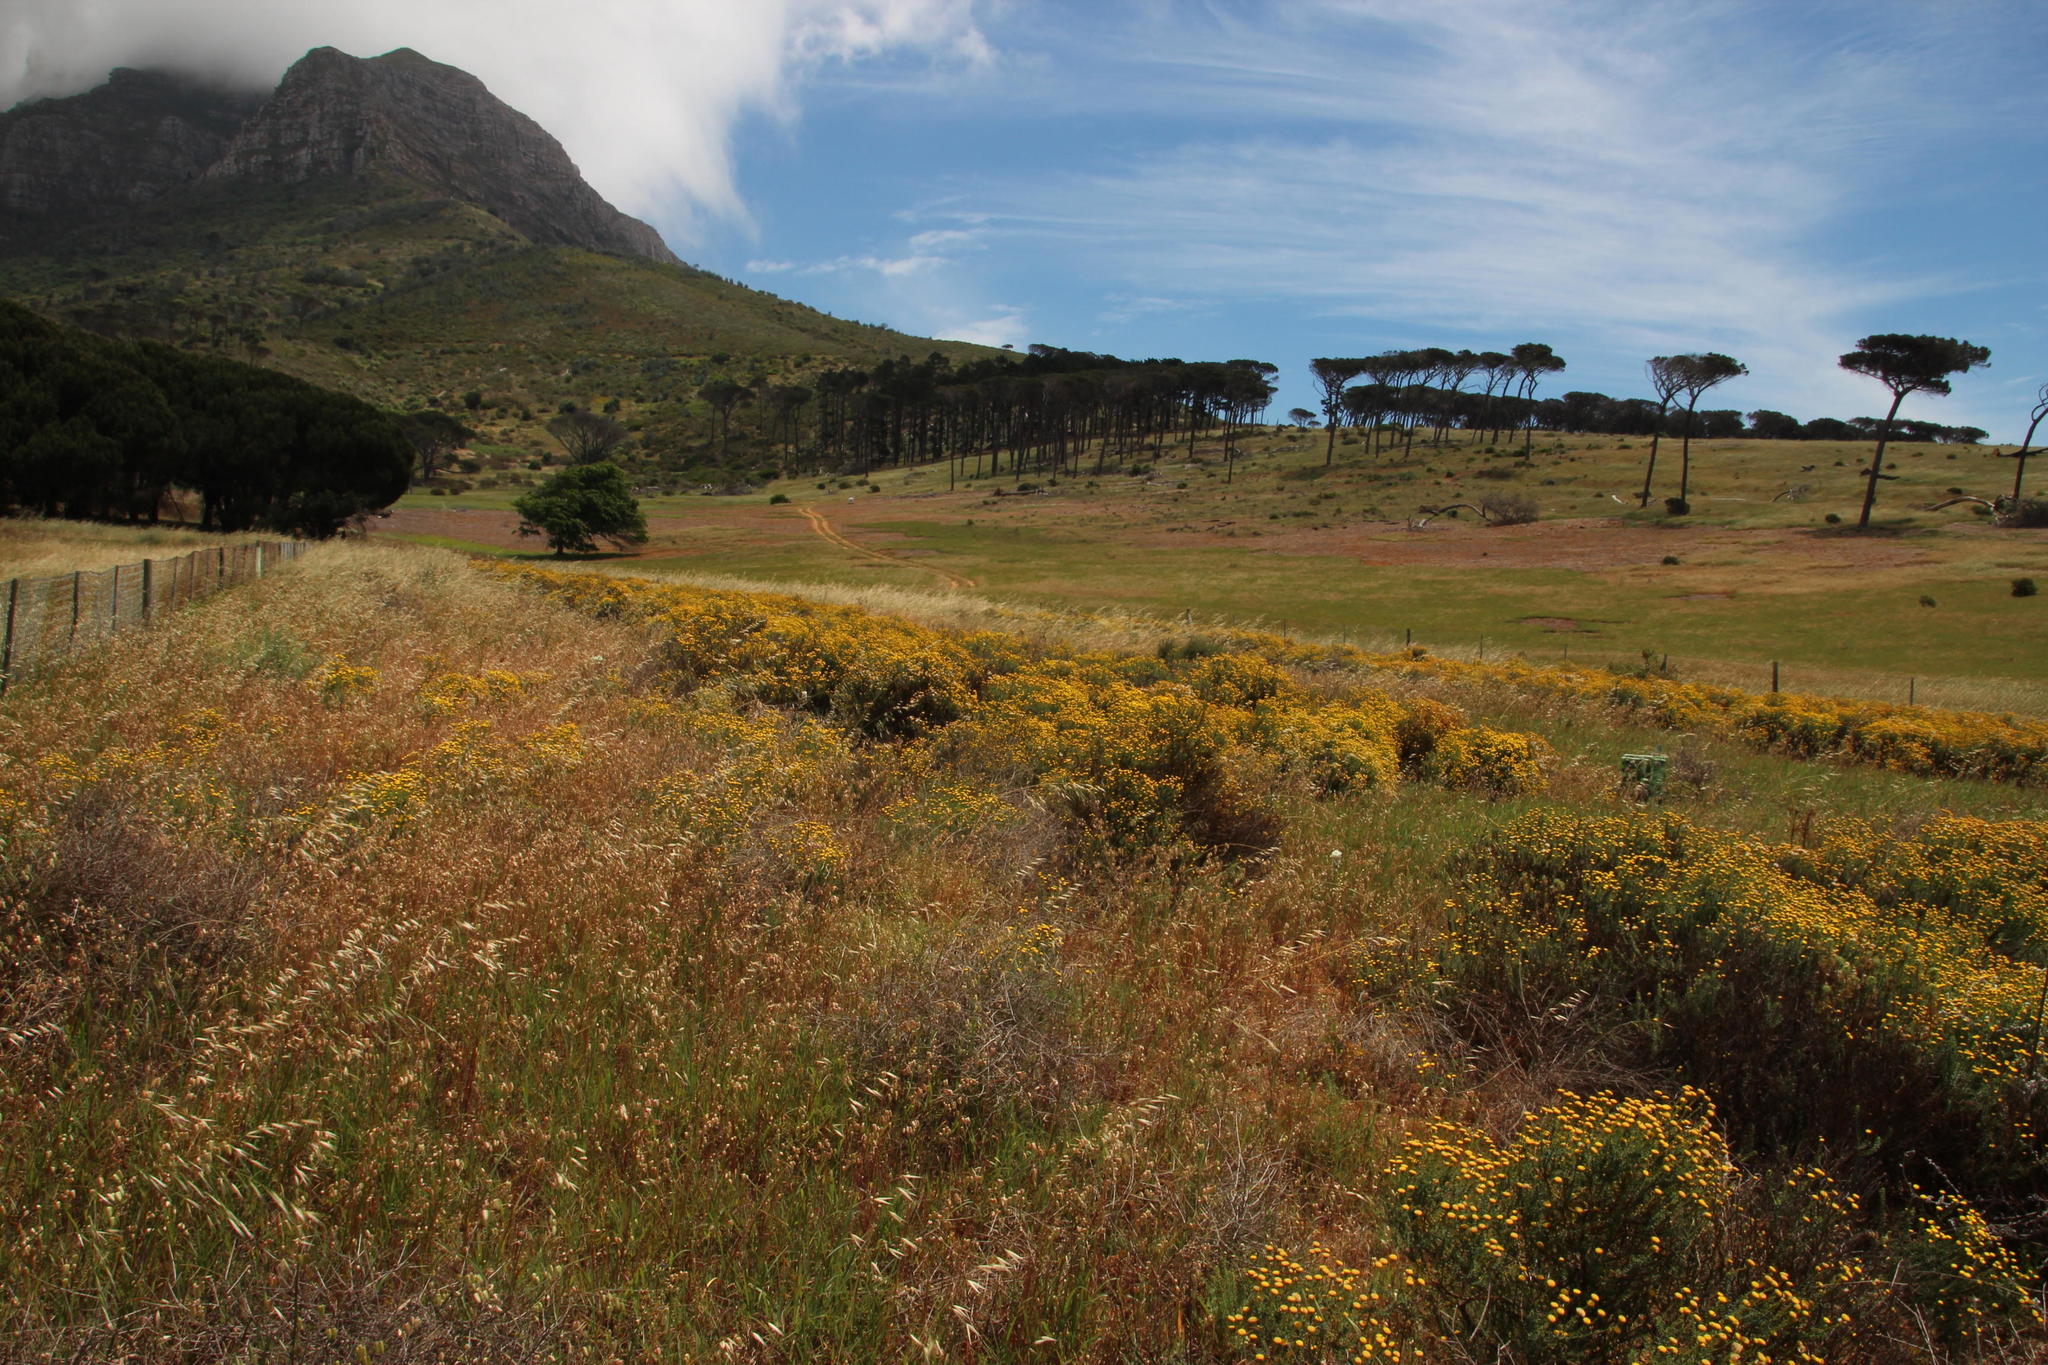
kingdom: Plantae
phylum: Tracheophyta
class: Pinopsida
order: Pinales
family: Pinaceae
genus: Pinus
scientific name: Pinus pinea
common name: Italian stone pine
